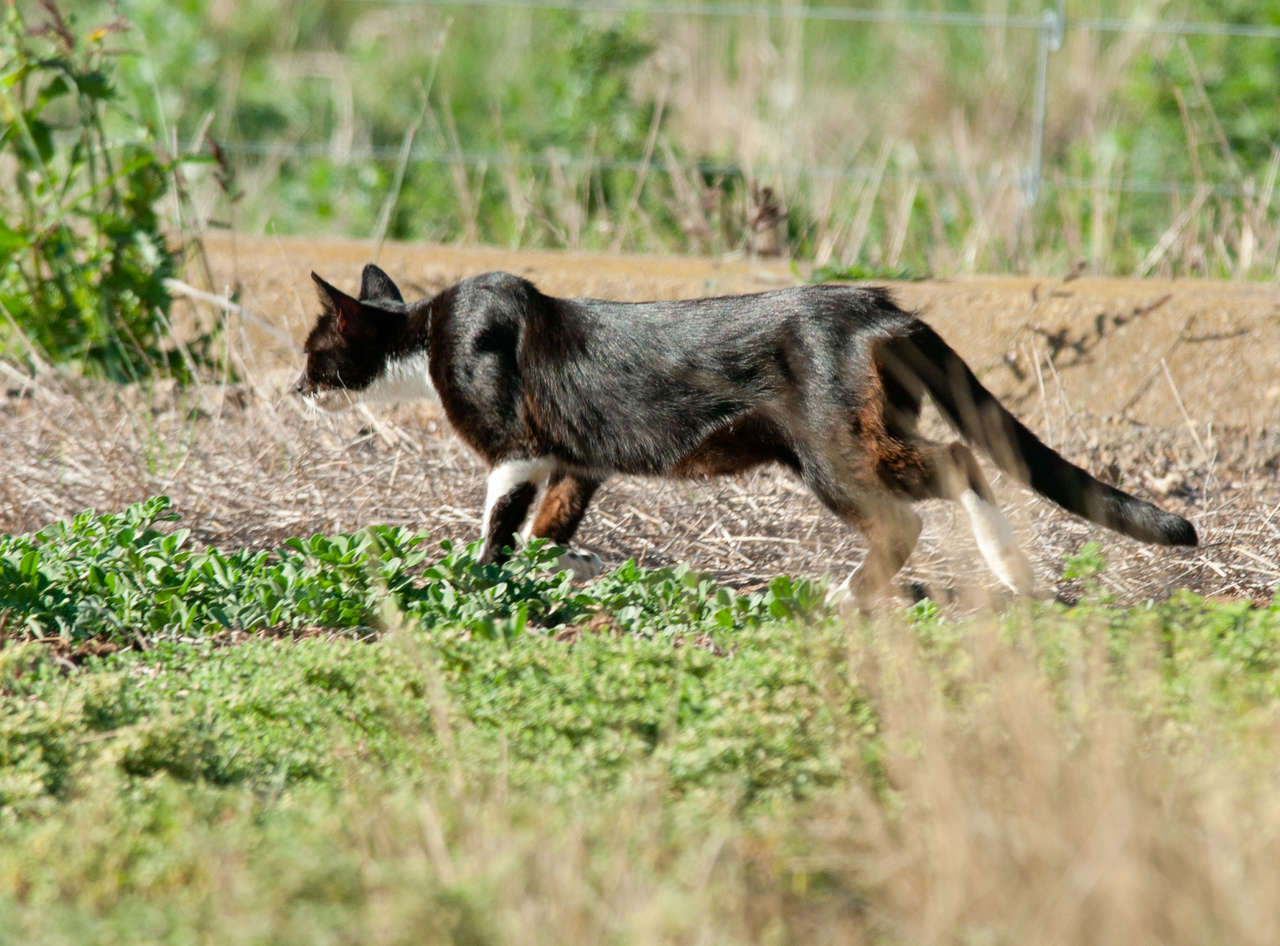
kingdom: Animalia
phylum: Chordata
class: Mammalia
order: Carnivora
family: Felidae
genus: Felis
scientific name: Felis catus
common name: Domestic cat
